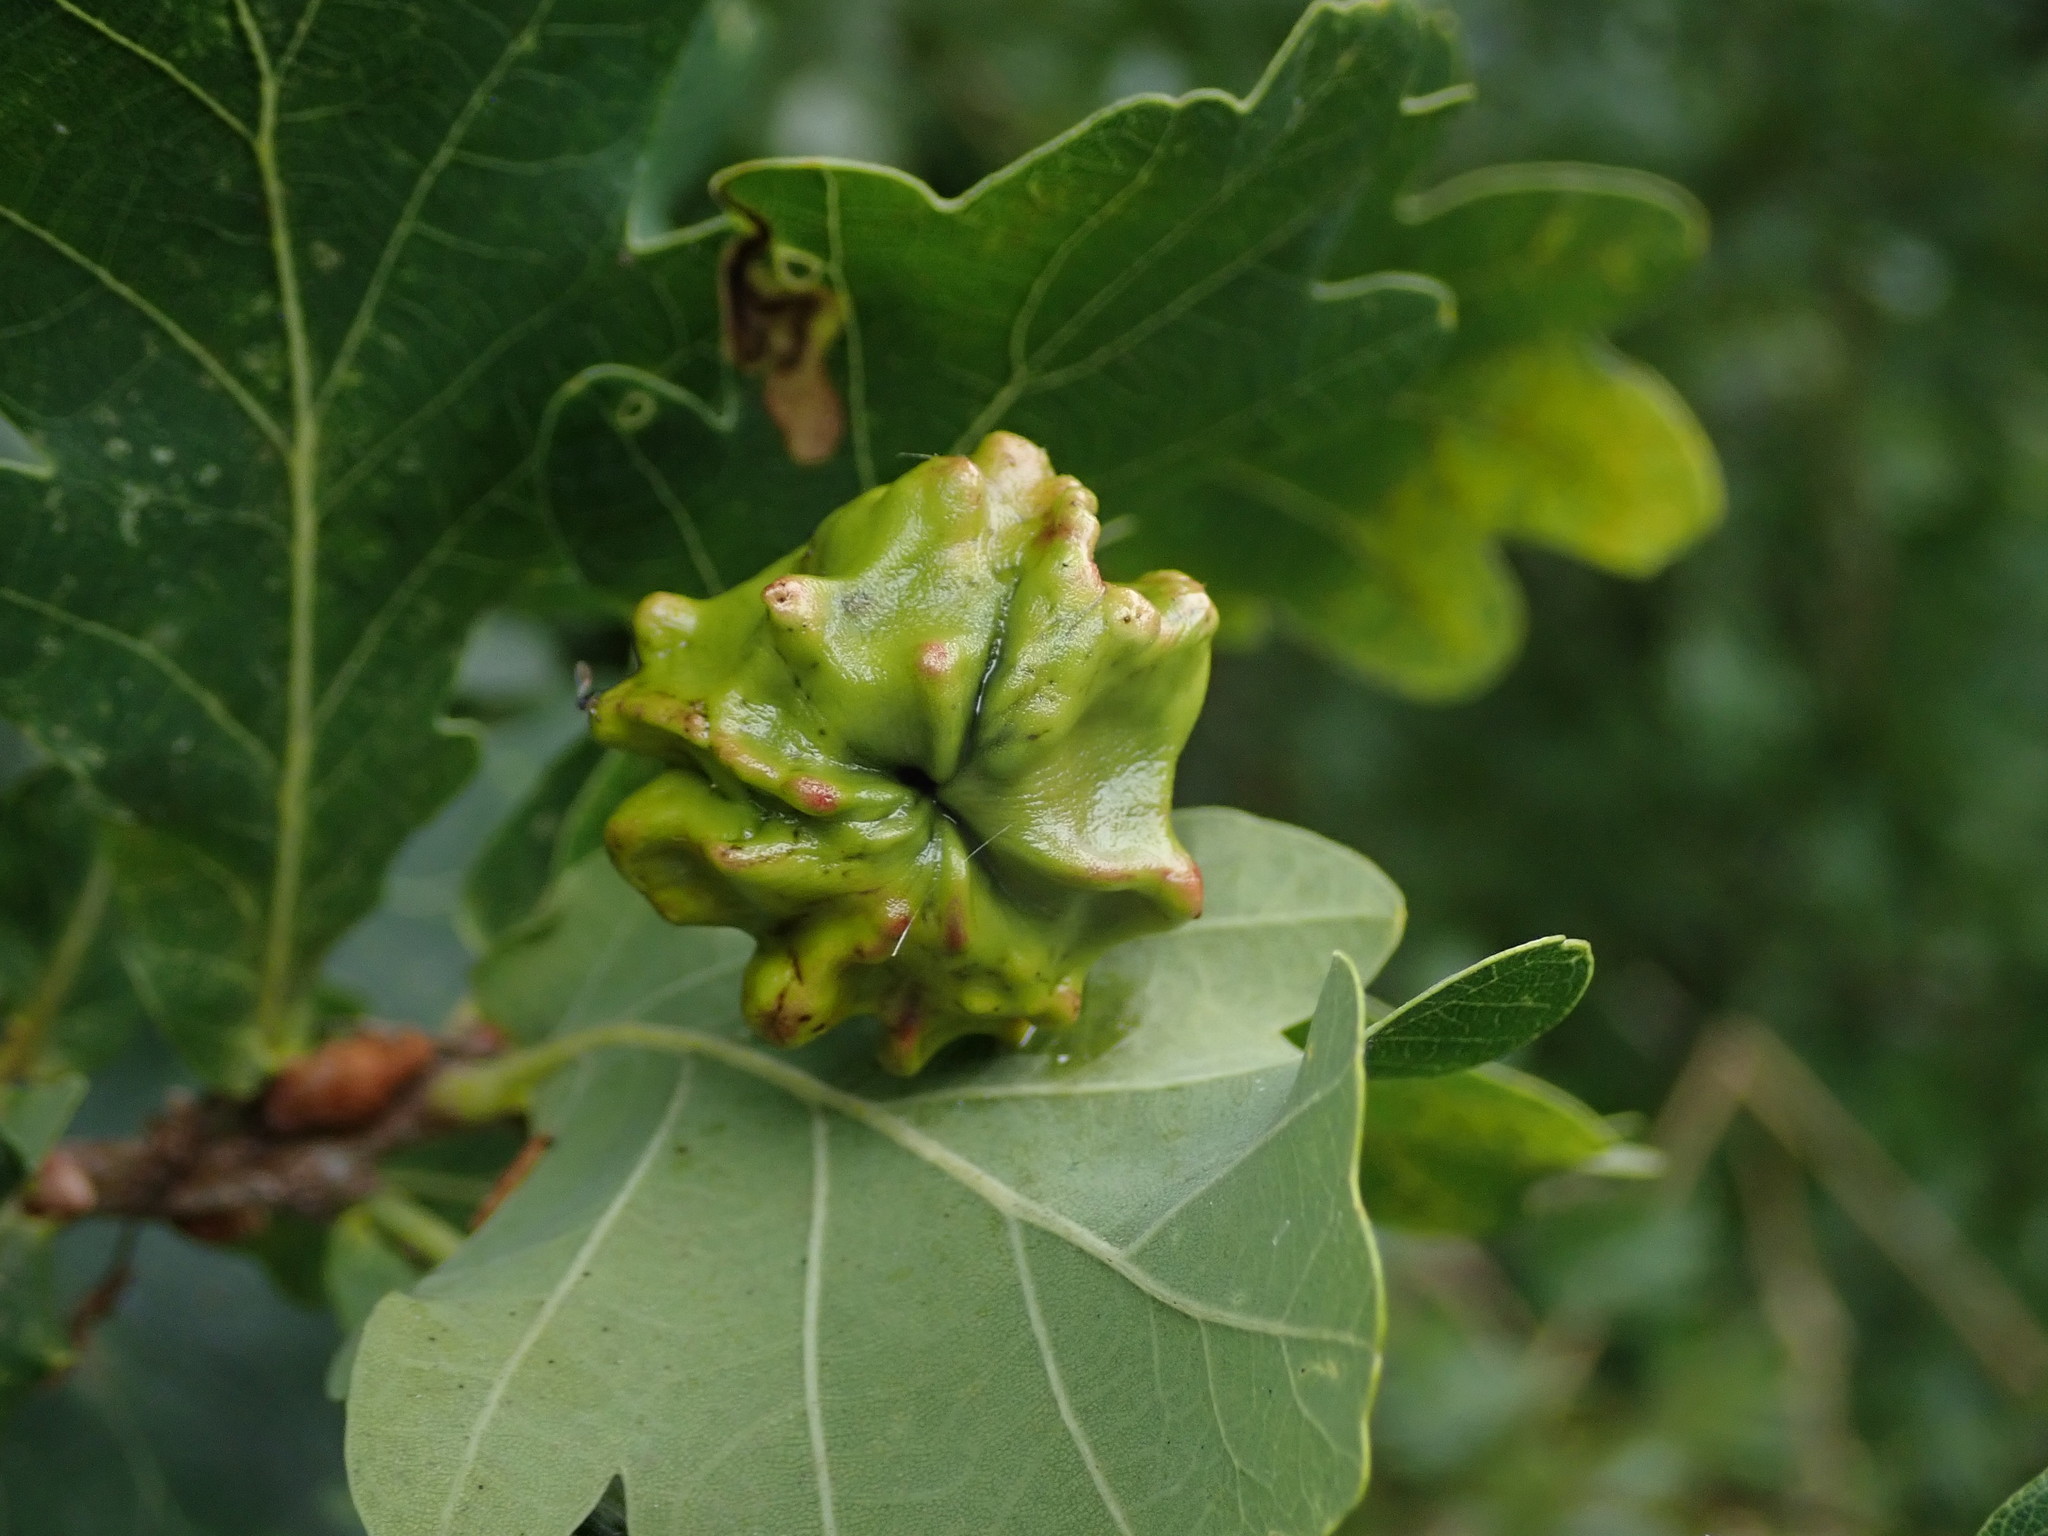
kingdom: Animalia
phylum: Arthropoda
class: Insecta
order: Hymenoptera
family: Cynipidae
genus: Andricus
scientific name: Andricus quercuscalicis
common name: Knopper gall
